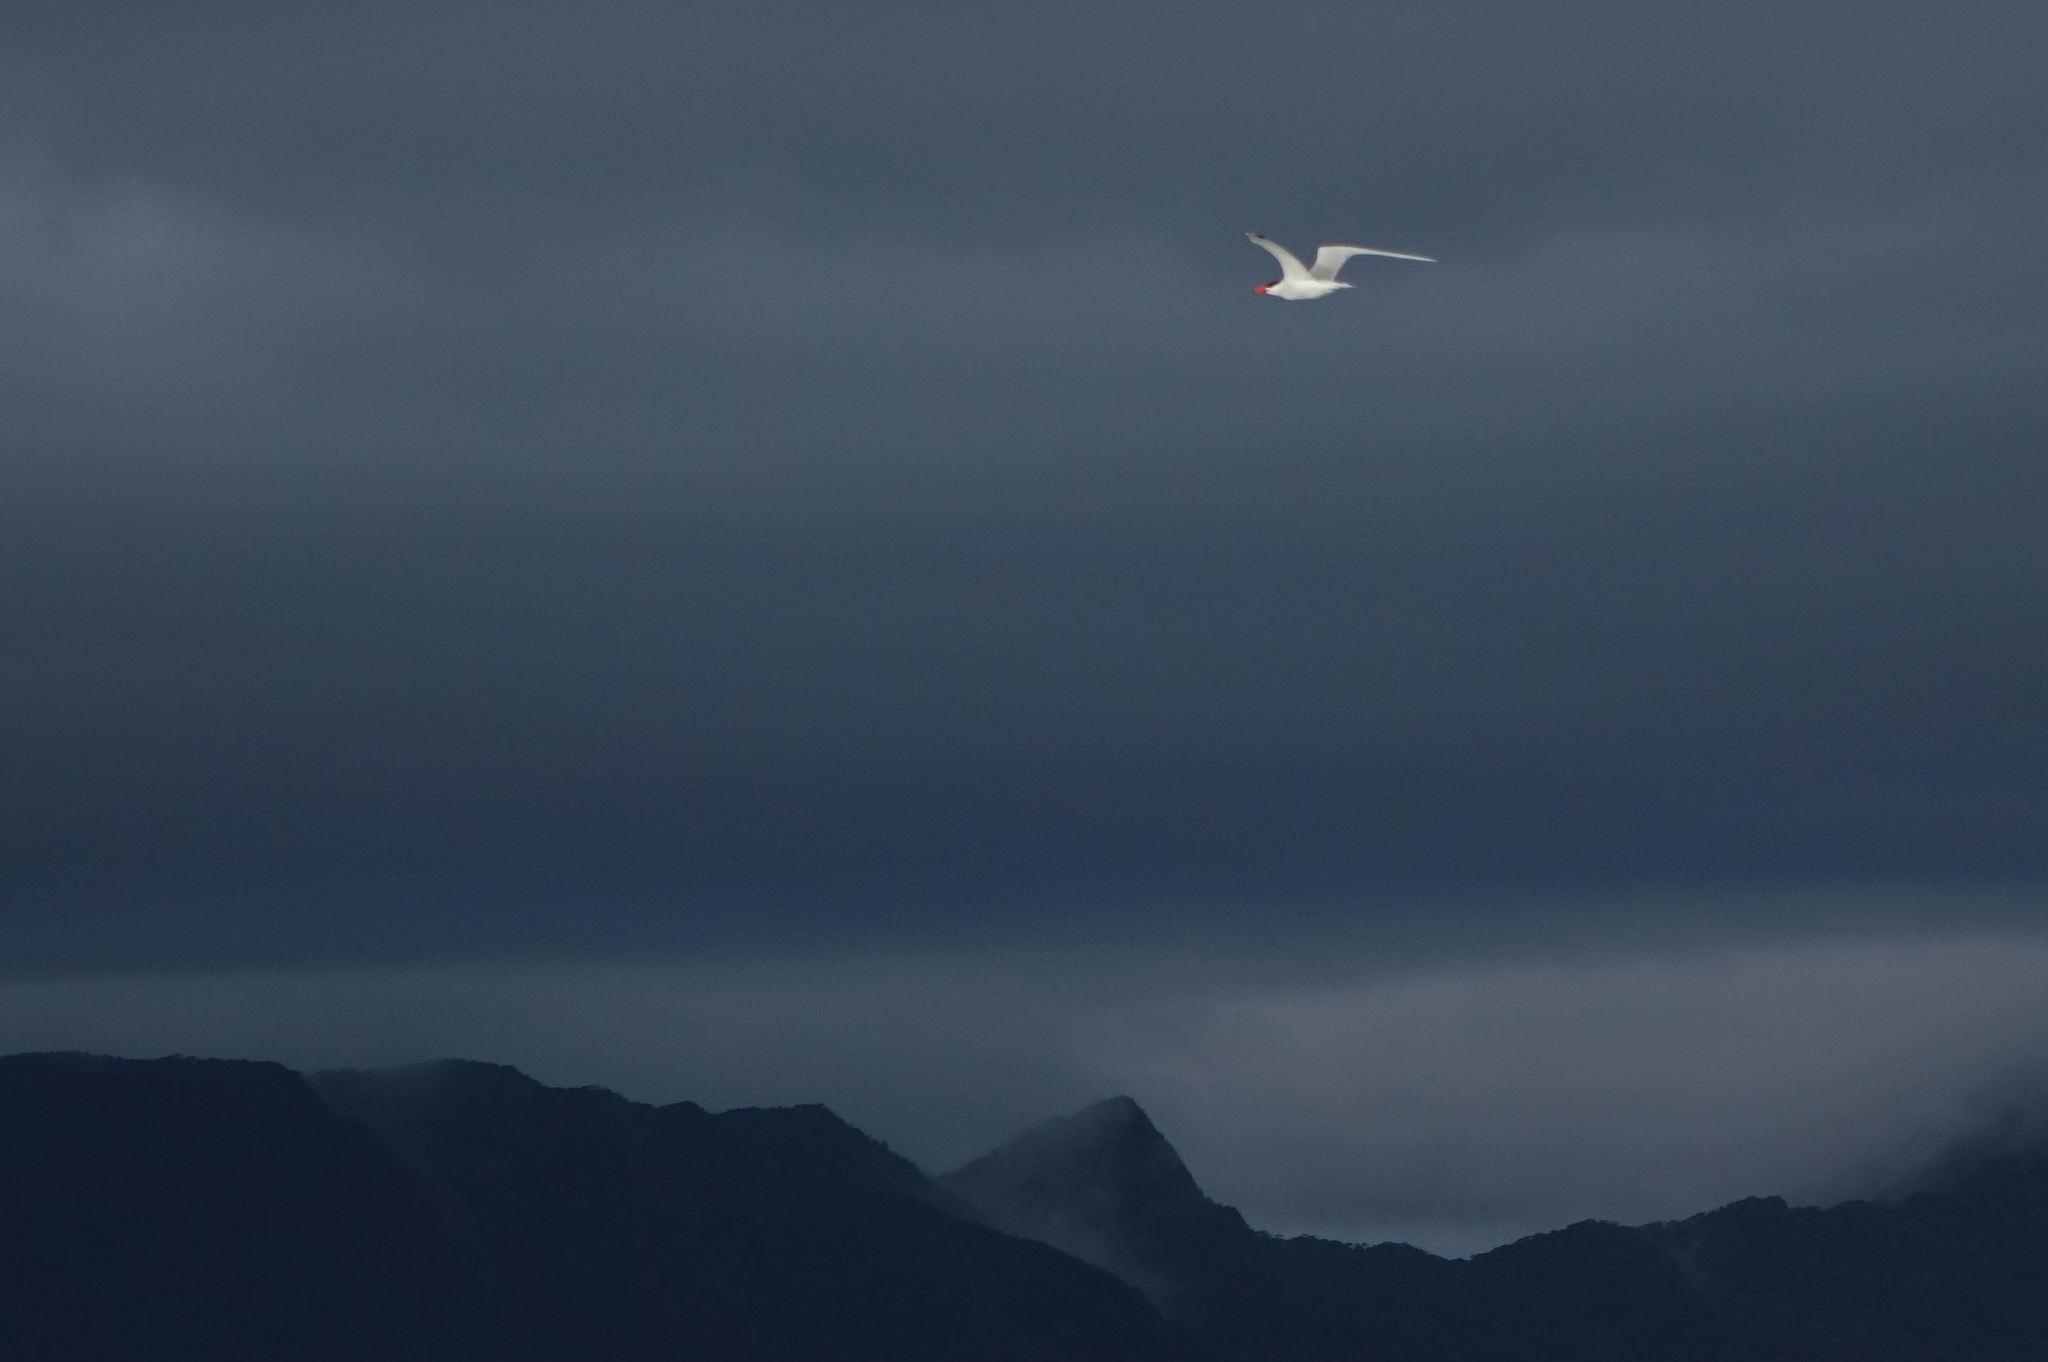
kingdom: Animalia
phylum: Chordata
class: Aves
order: Charadriiformes
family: Laridae
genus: Hydroprogne
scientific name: Hydroprogne caspia
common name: Caspian tern
